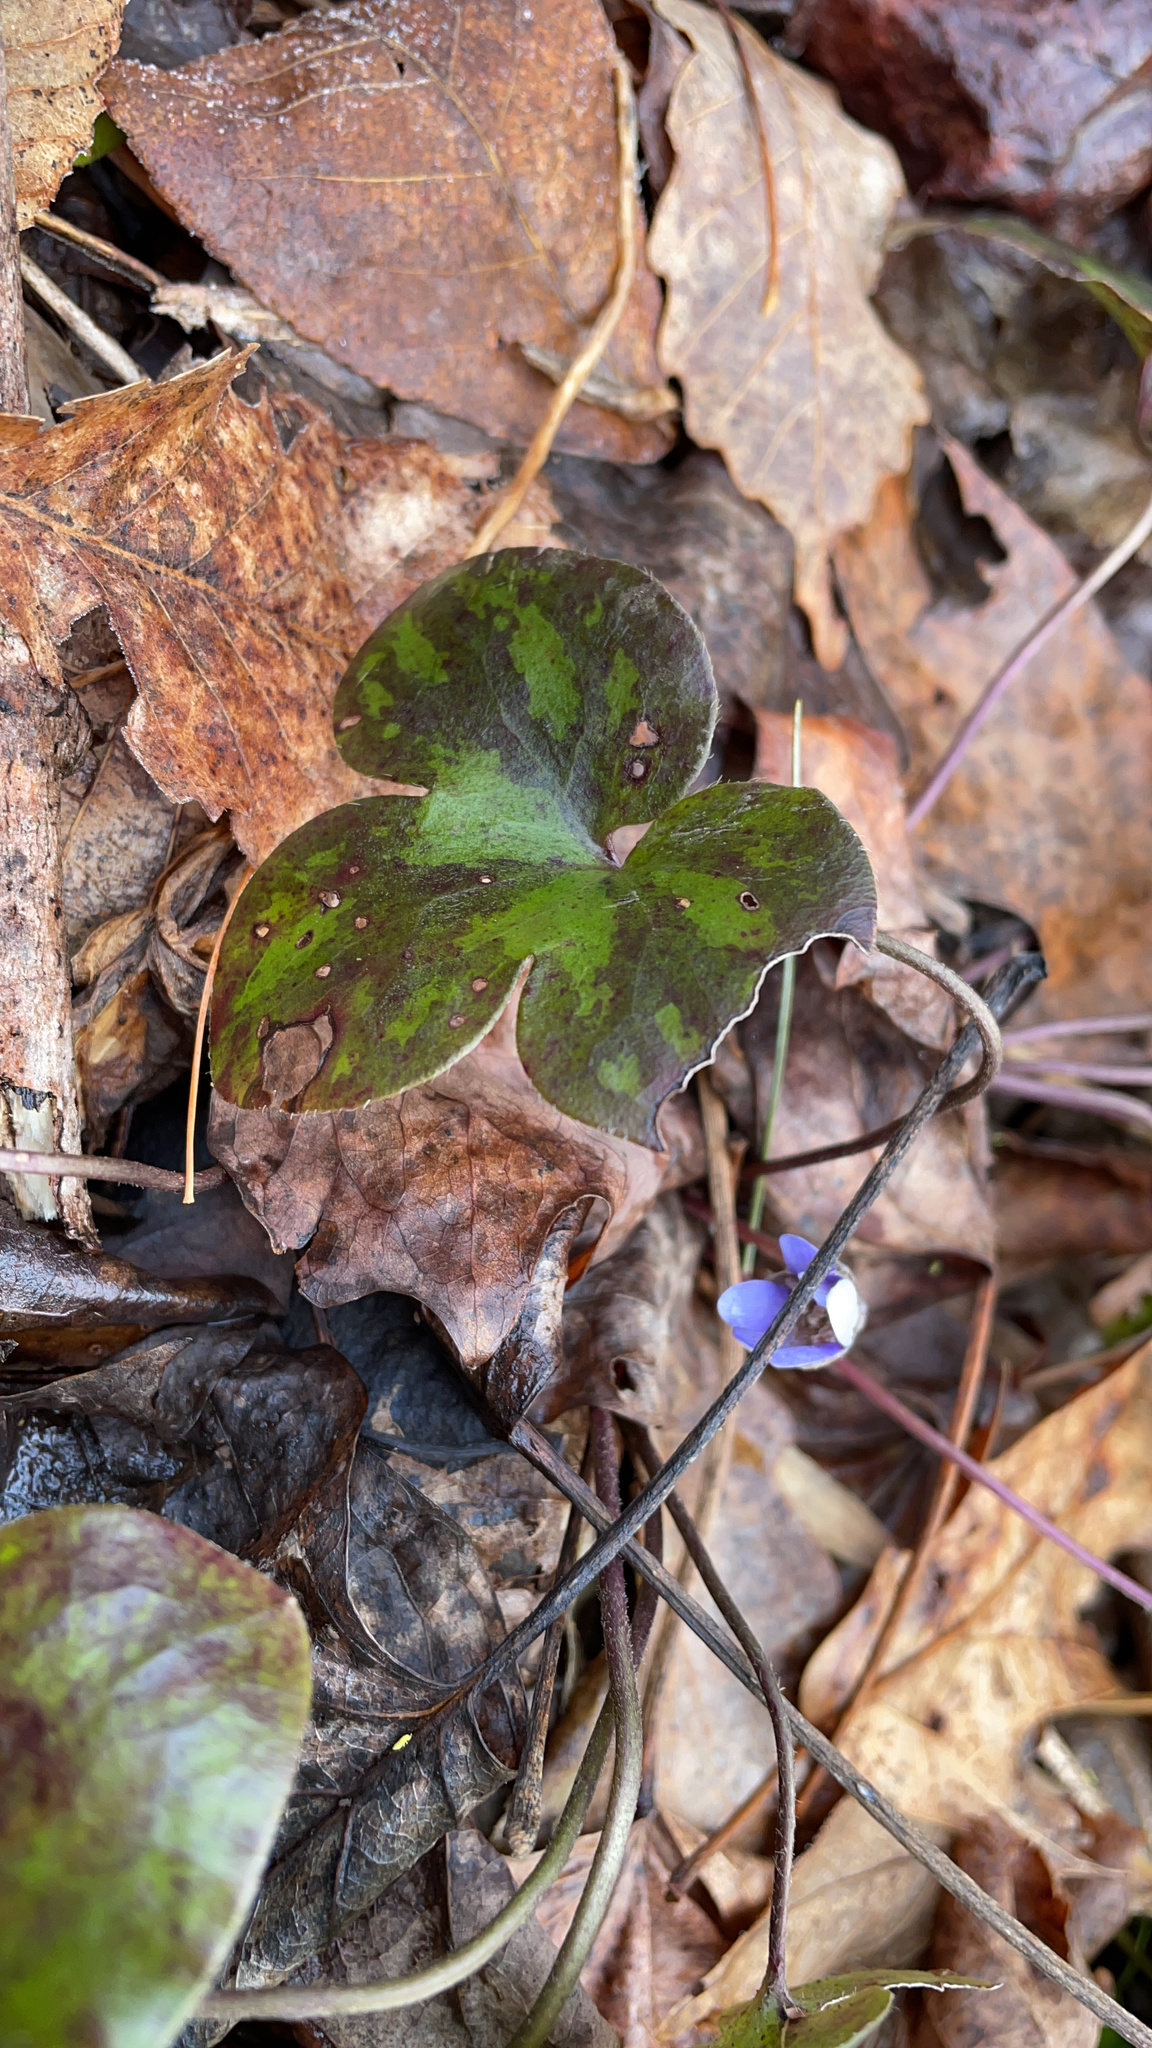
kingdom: Plantae
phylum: Tracheophyta
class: Magnoliopsida
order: Ranunculales
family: Ranunculaceae
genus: Hepatica
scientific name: Hepatica americana
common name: American hepatica
